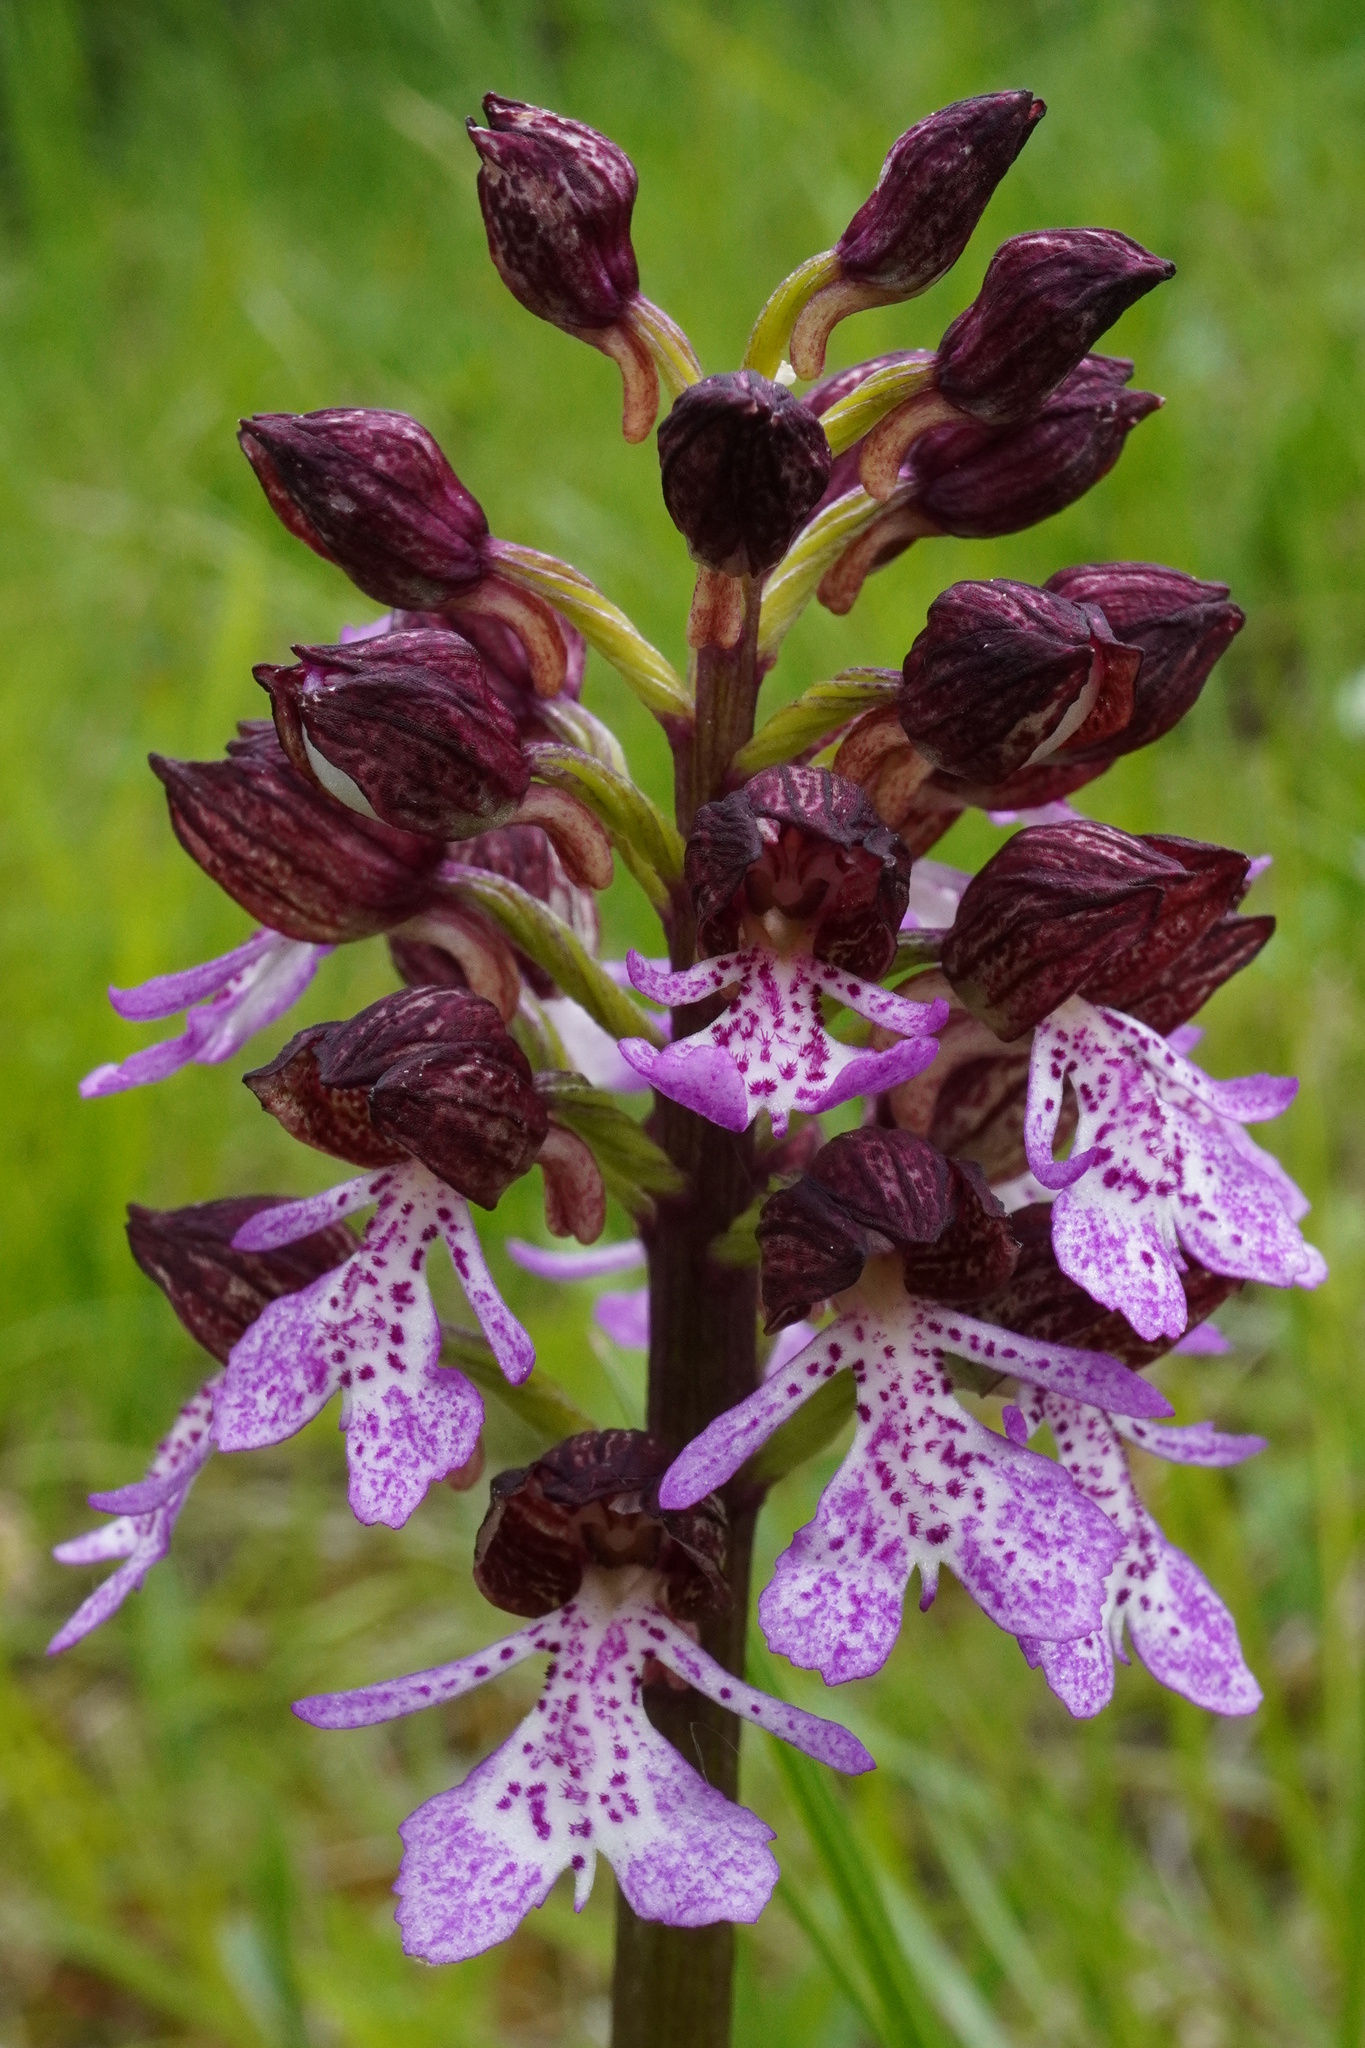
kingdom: Plantae
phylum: Tracheophyta
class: Liliopsida
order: Asparagales
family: Orchidaceae
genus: Orchis
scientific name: Orchis purpurea
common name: Lady orchid
